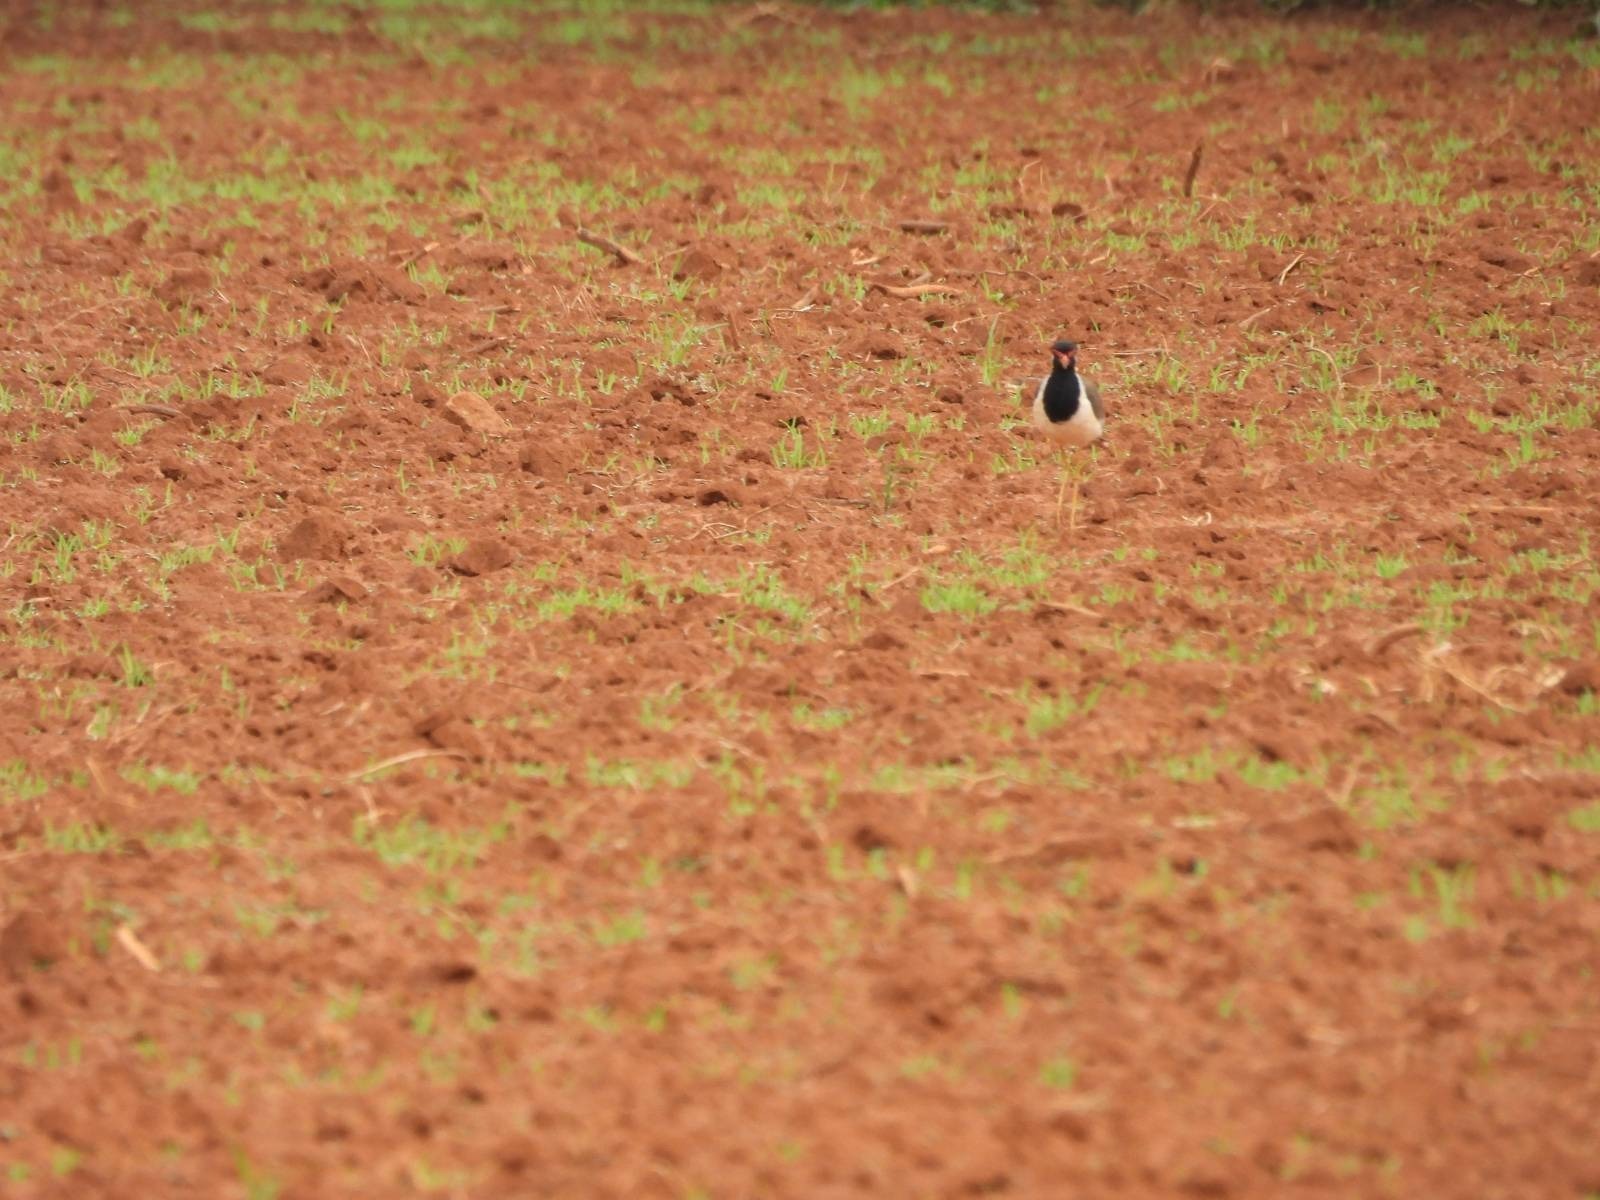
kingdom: Animalia
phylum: Chordata
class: Aves
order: Charadriiformes
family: Charadriidae
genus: Vanellus
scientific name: Vanellus indicus
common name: Red-wattled lapwing
